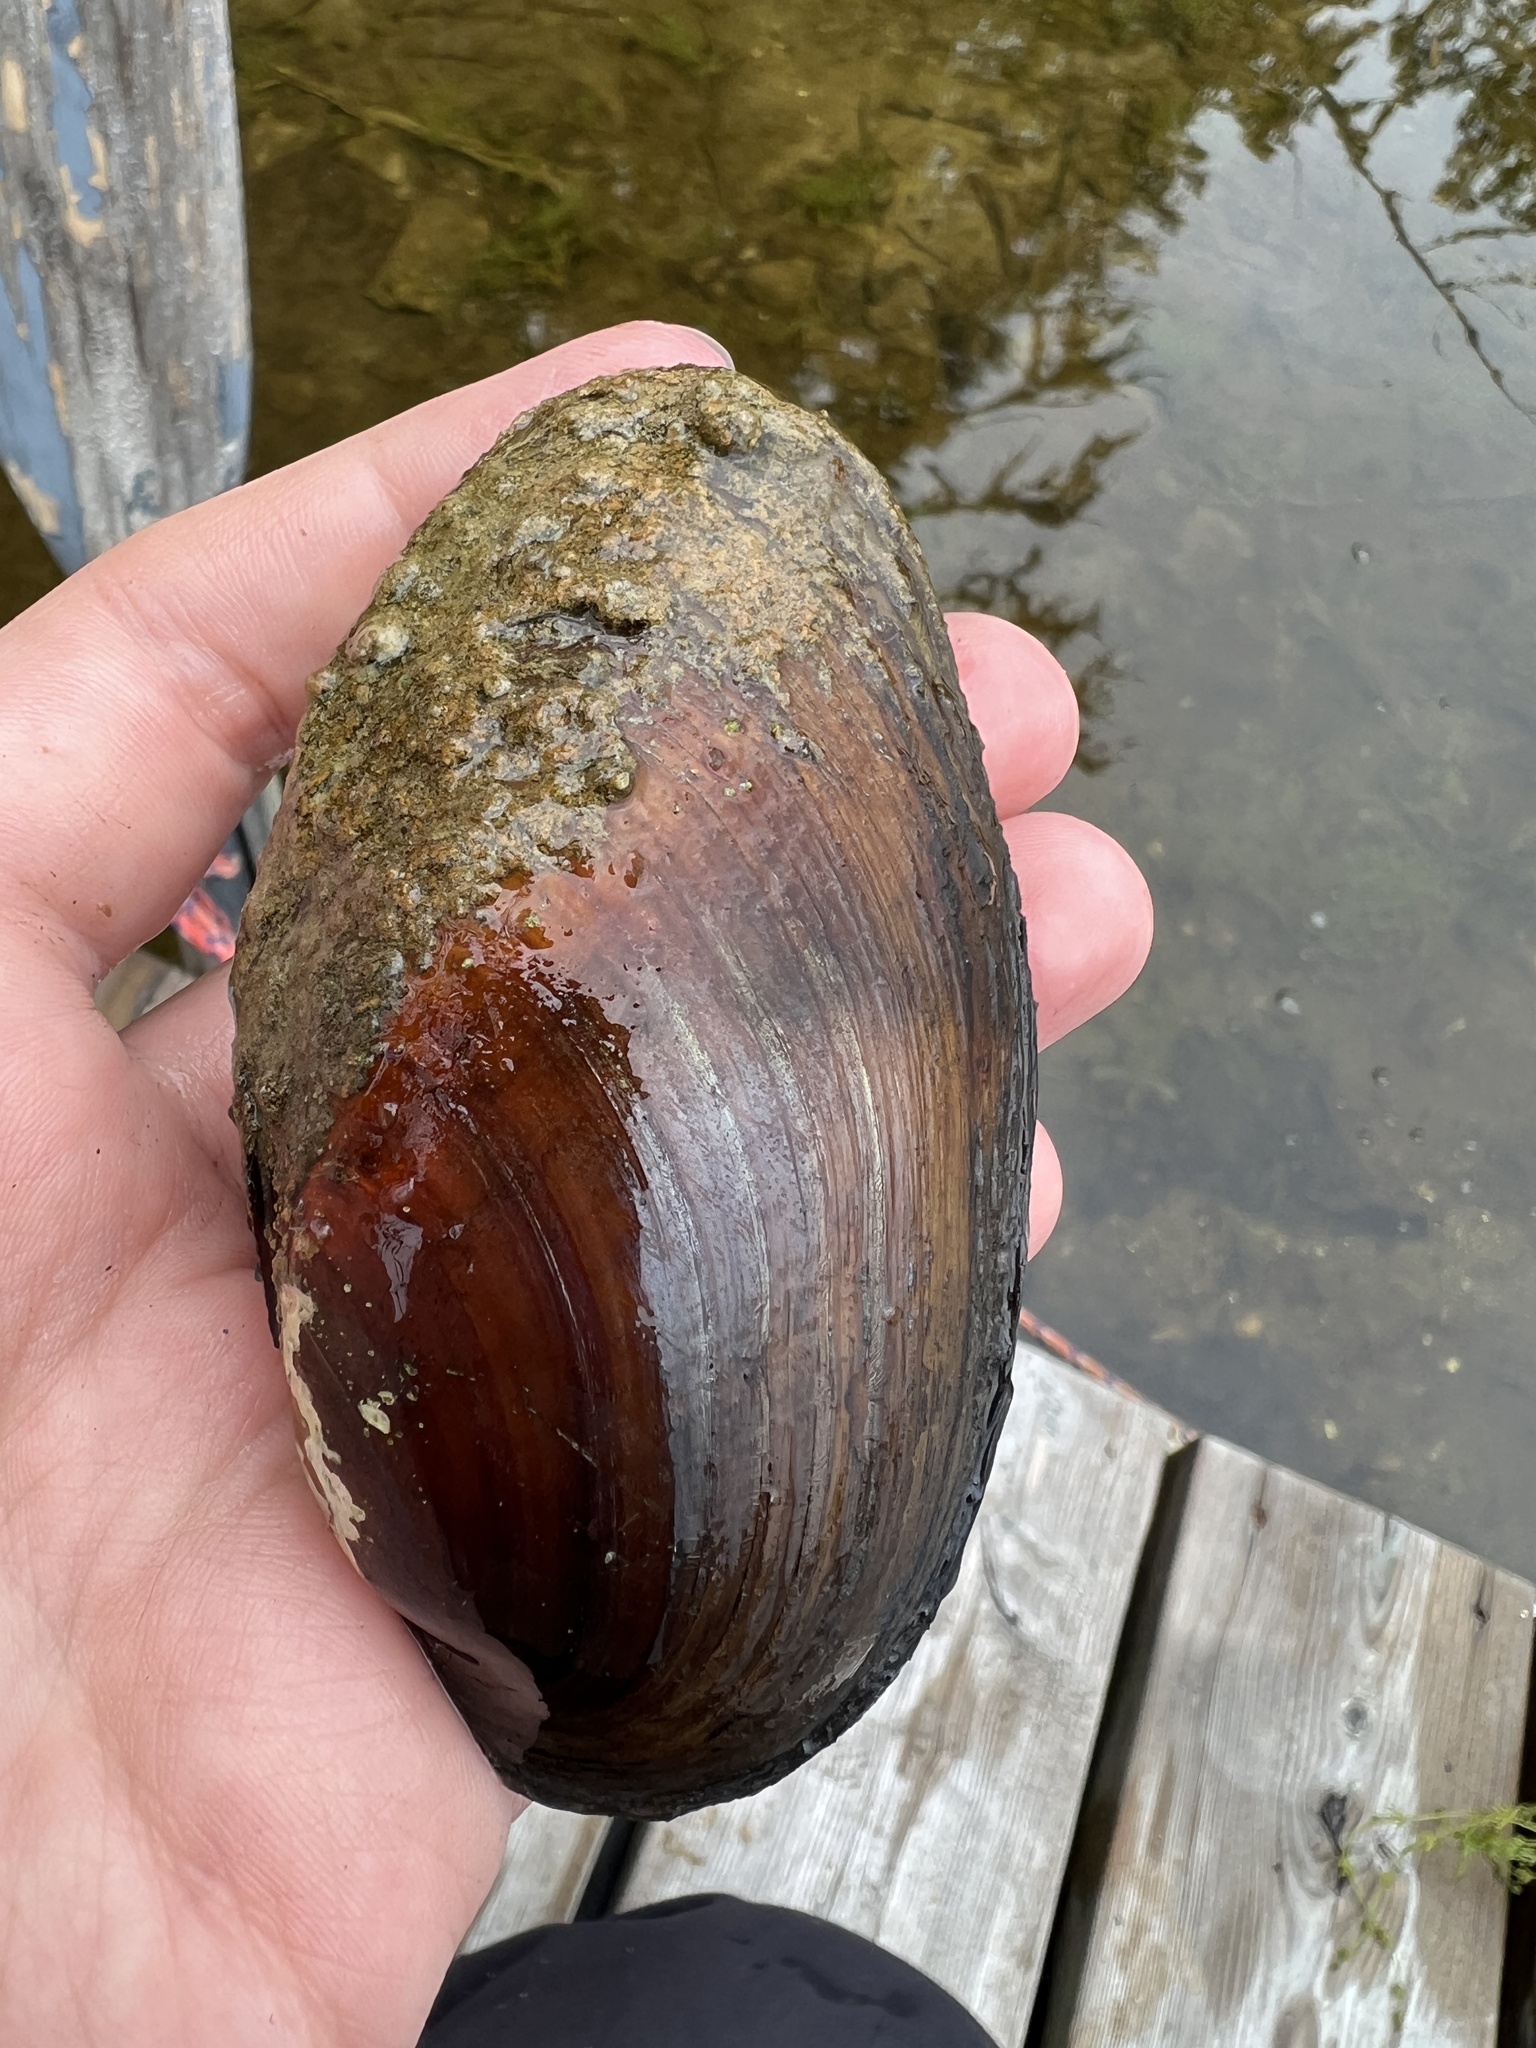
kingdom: Animalia
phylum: Mollusca
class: Bivalvia
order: Unionida
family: Unionidae
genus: Lampsilis
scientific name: Lampsilis siliquoidea
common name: Fatmucket
